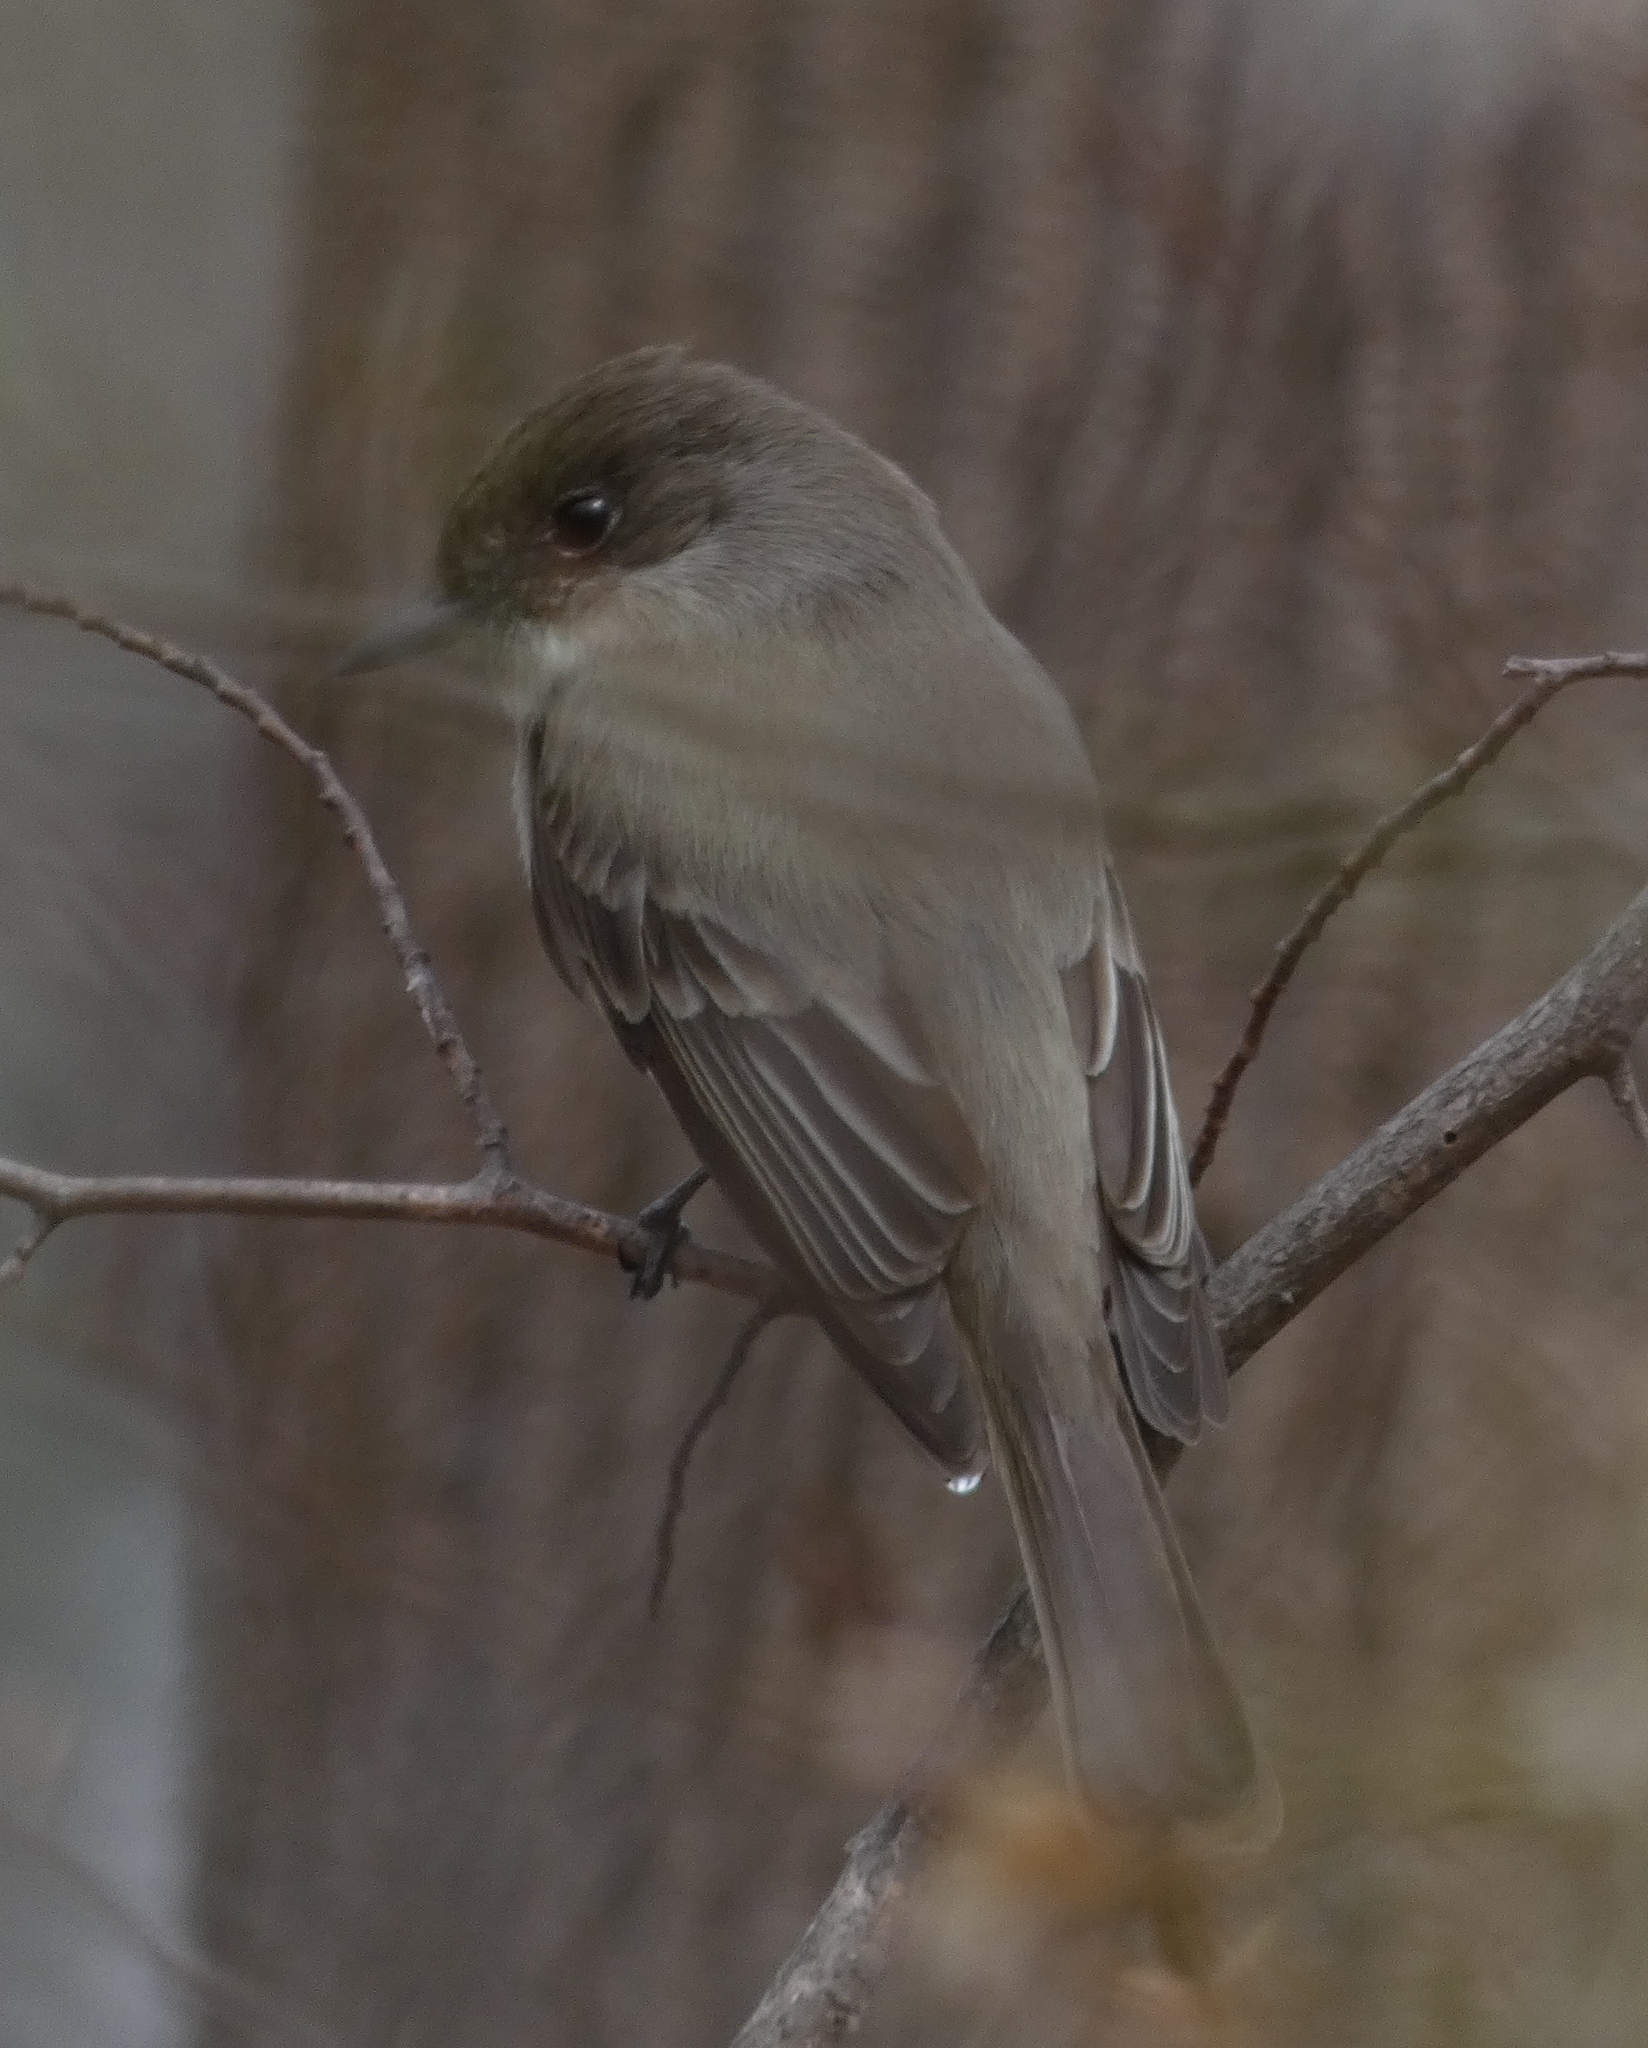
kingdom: Animalia
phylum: Chordata
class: Aves
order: Passeriformes
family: Tyrannidae
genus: Sayornis
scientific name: Sayornis phoebe
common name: Eastern phoebe
